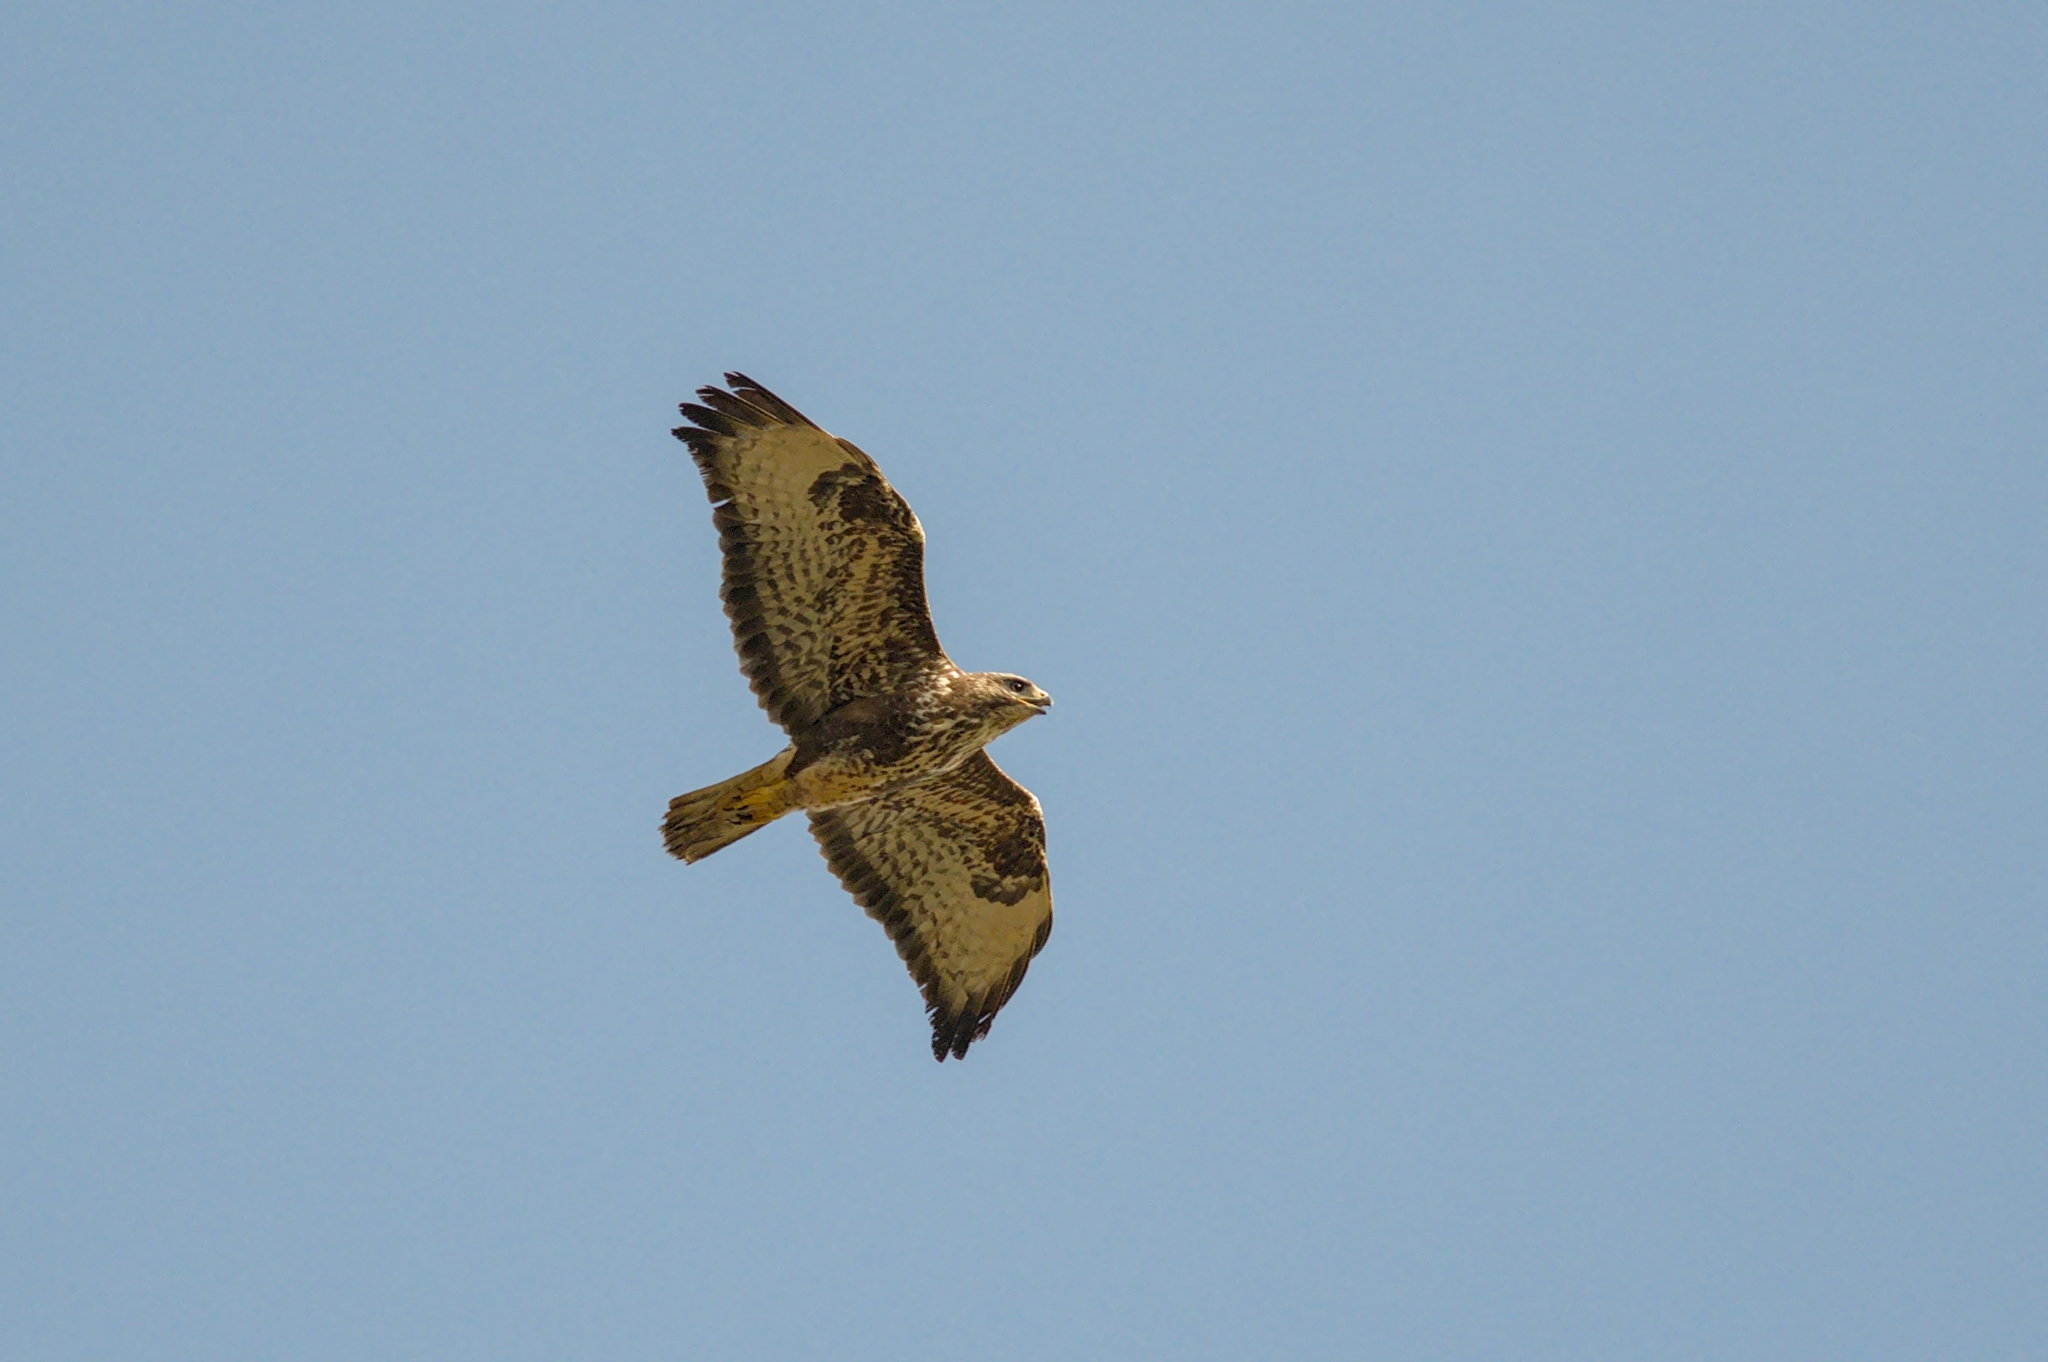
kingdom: Animalia
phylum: Chordata
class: Aves
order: Accipitriformes
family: Accipitridae
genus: Buteo
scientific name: Buteo buteo
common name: Common buzzard
